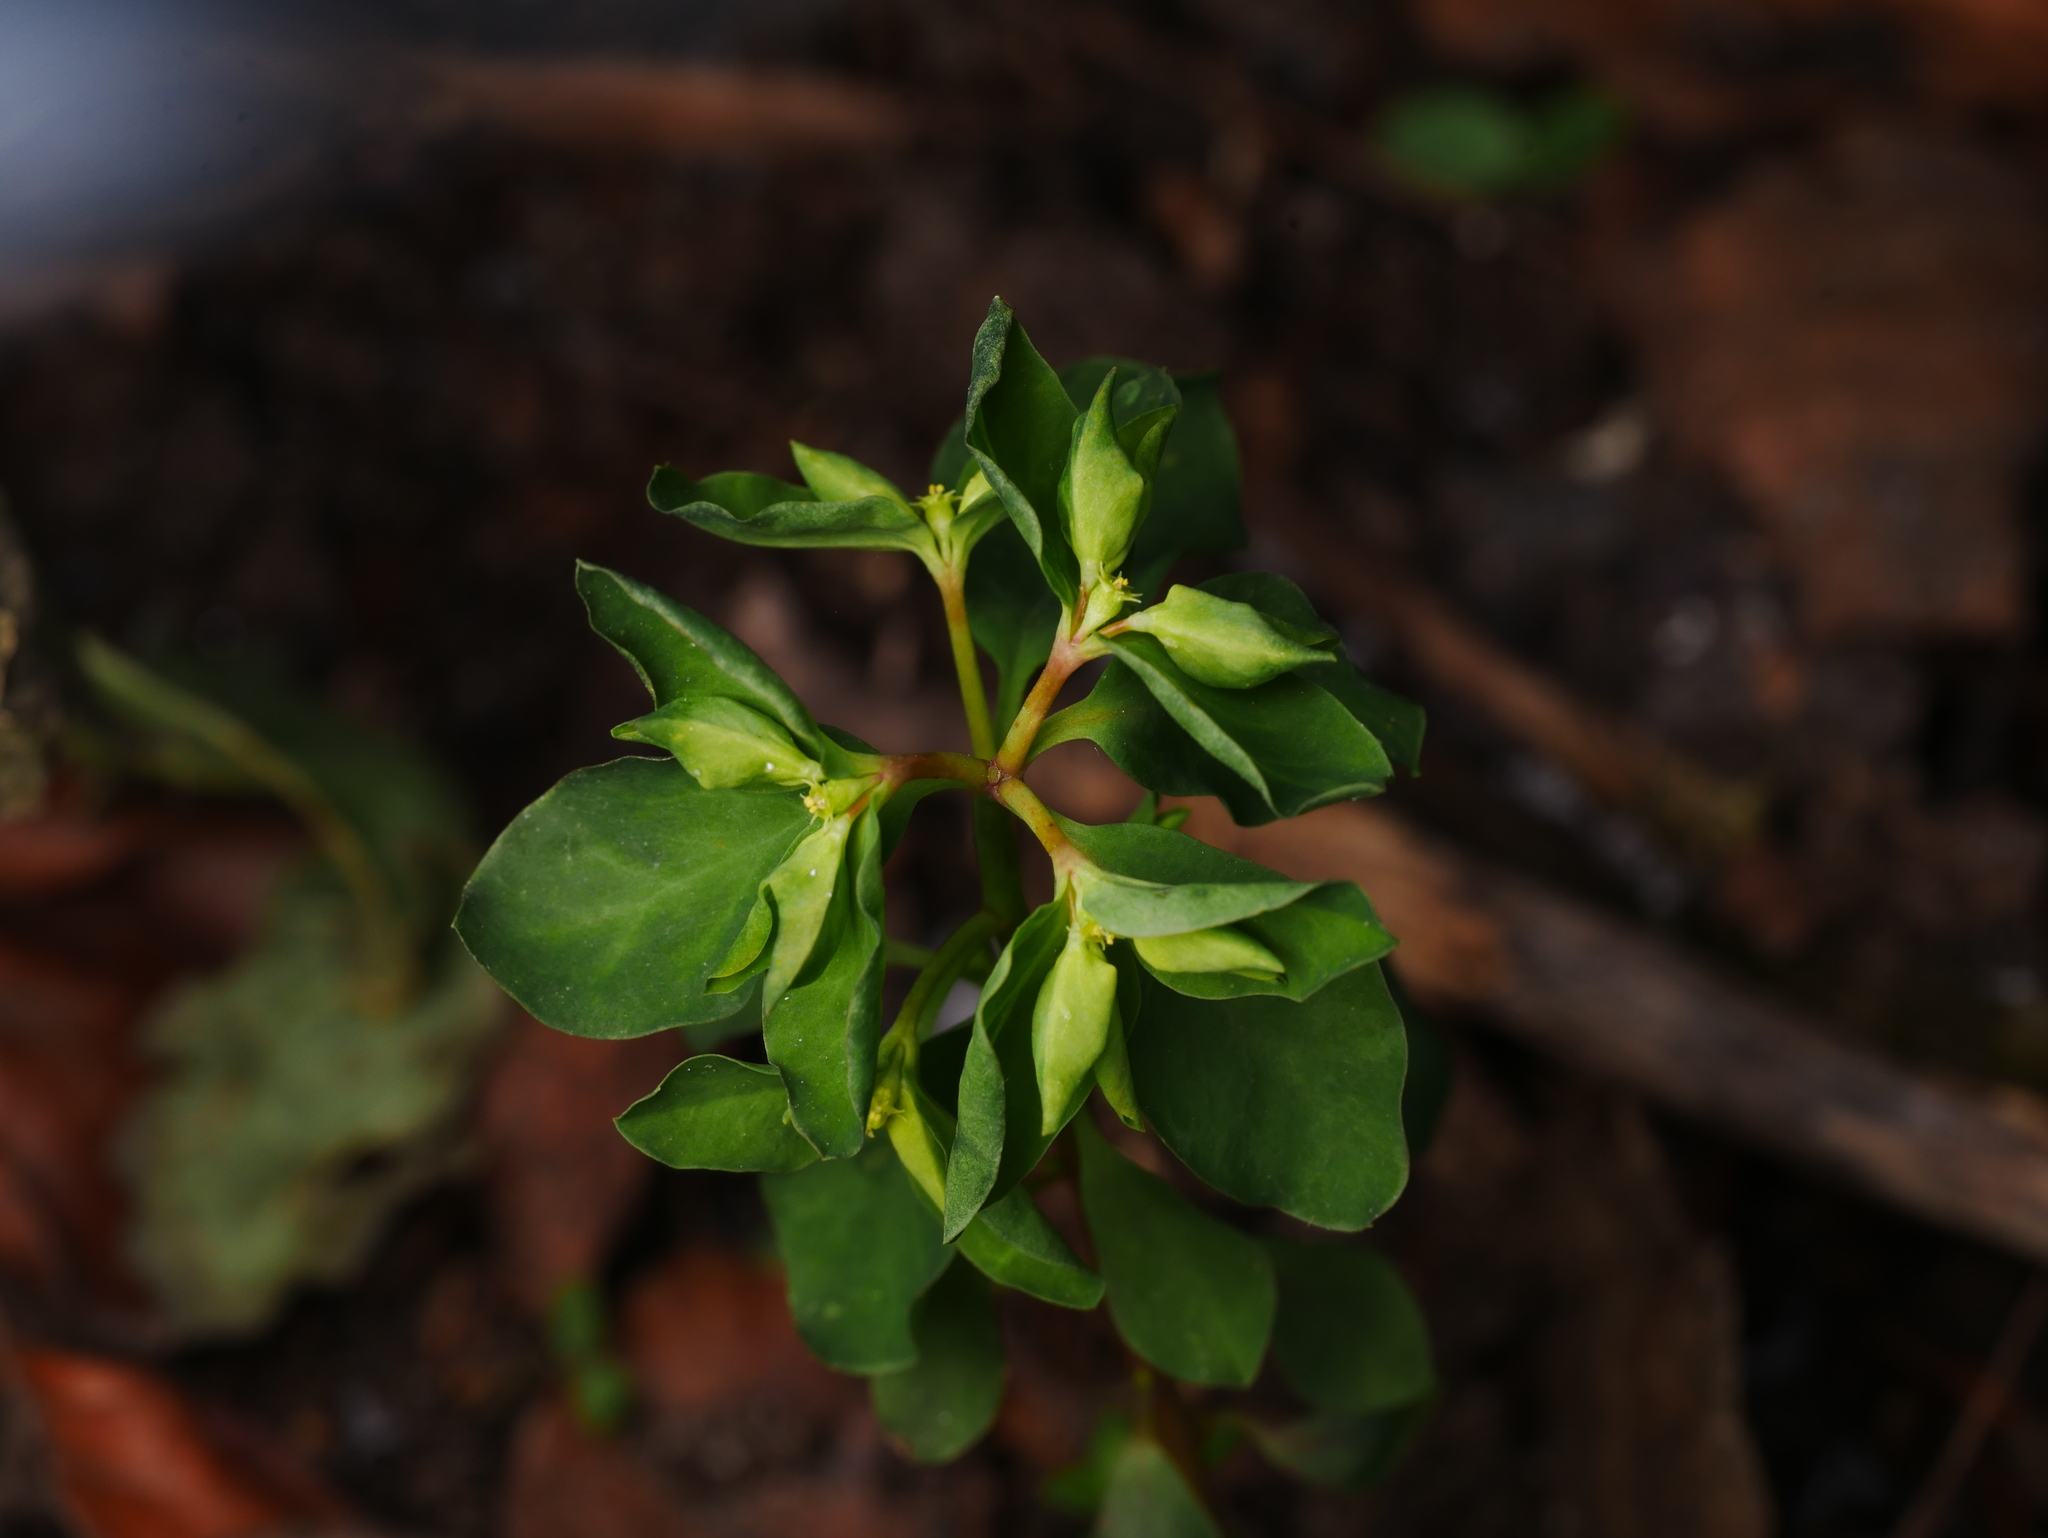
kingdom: Plantae
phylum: Tracheophyta
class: Magnoliopsida
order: Malpighiales
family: Euphorbiaceae
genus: Euphorbia
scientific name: Euphorbia peplus
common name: Petty spurge
